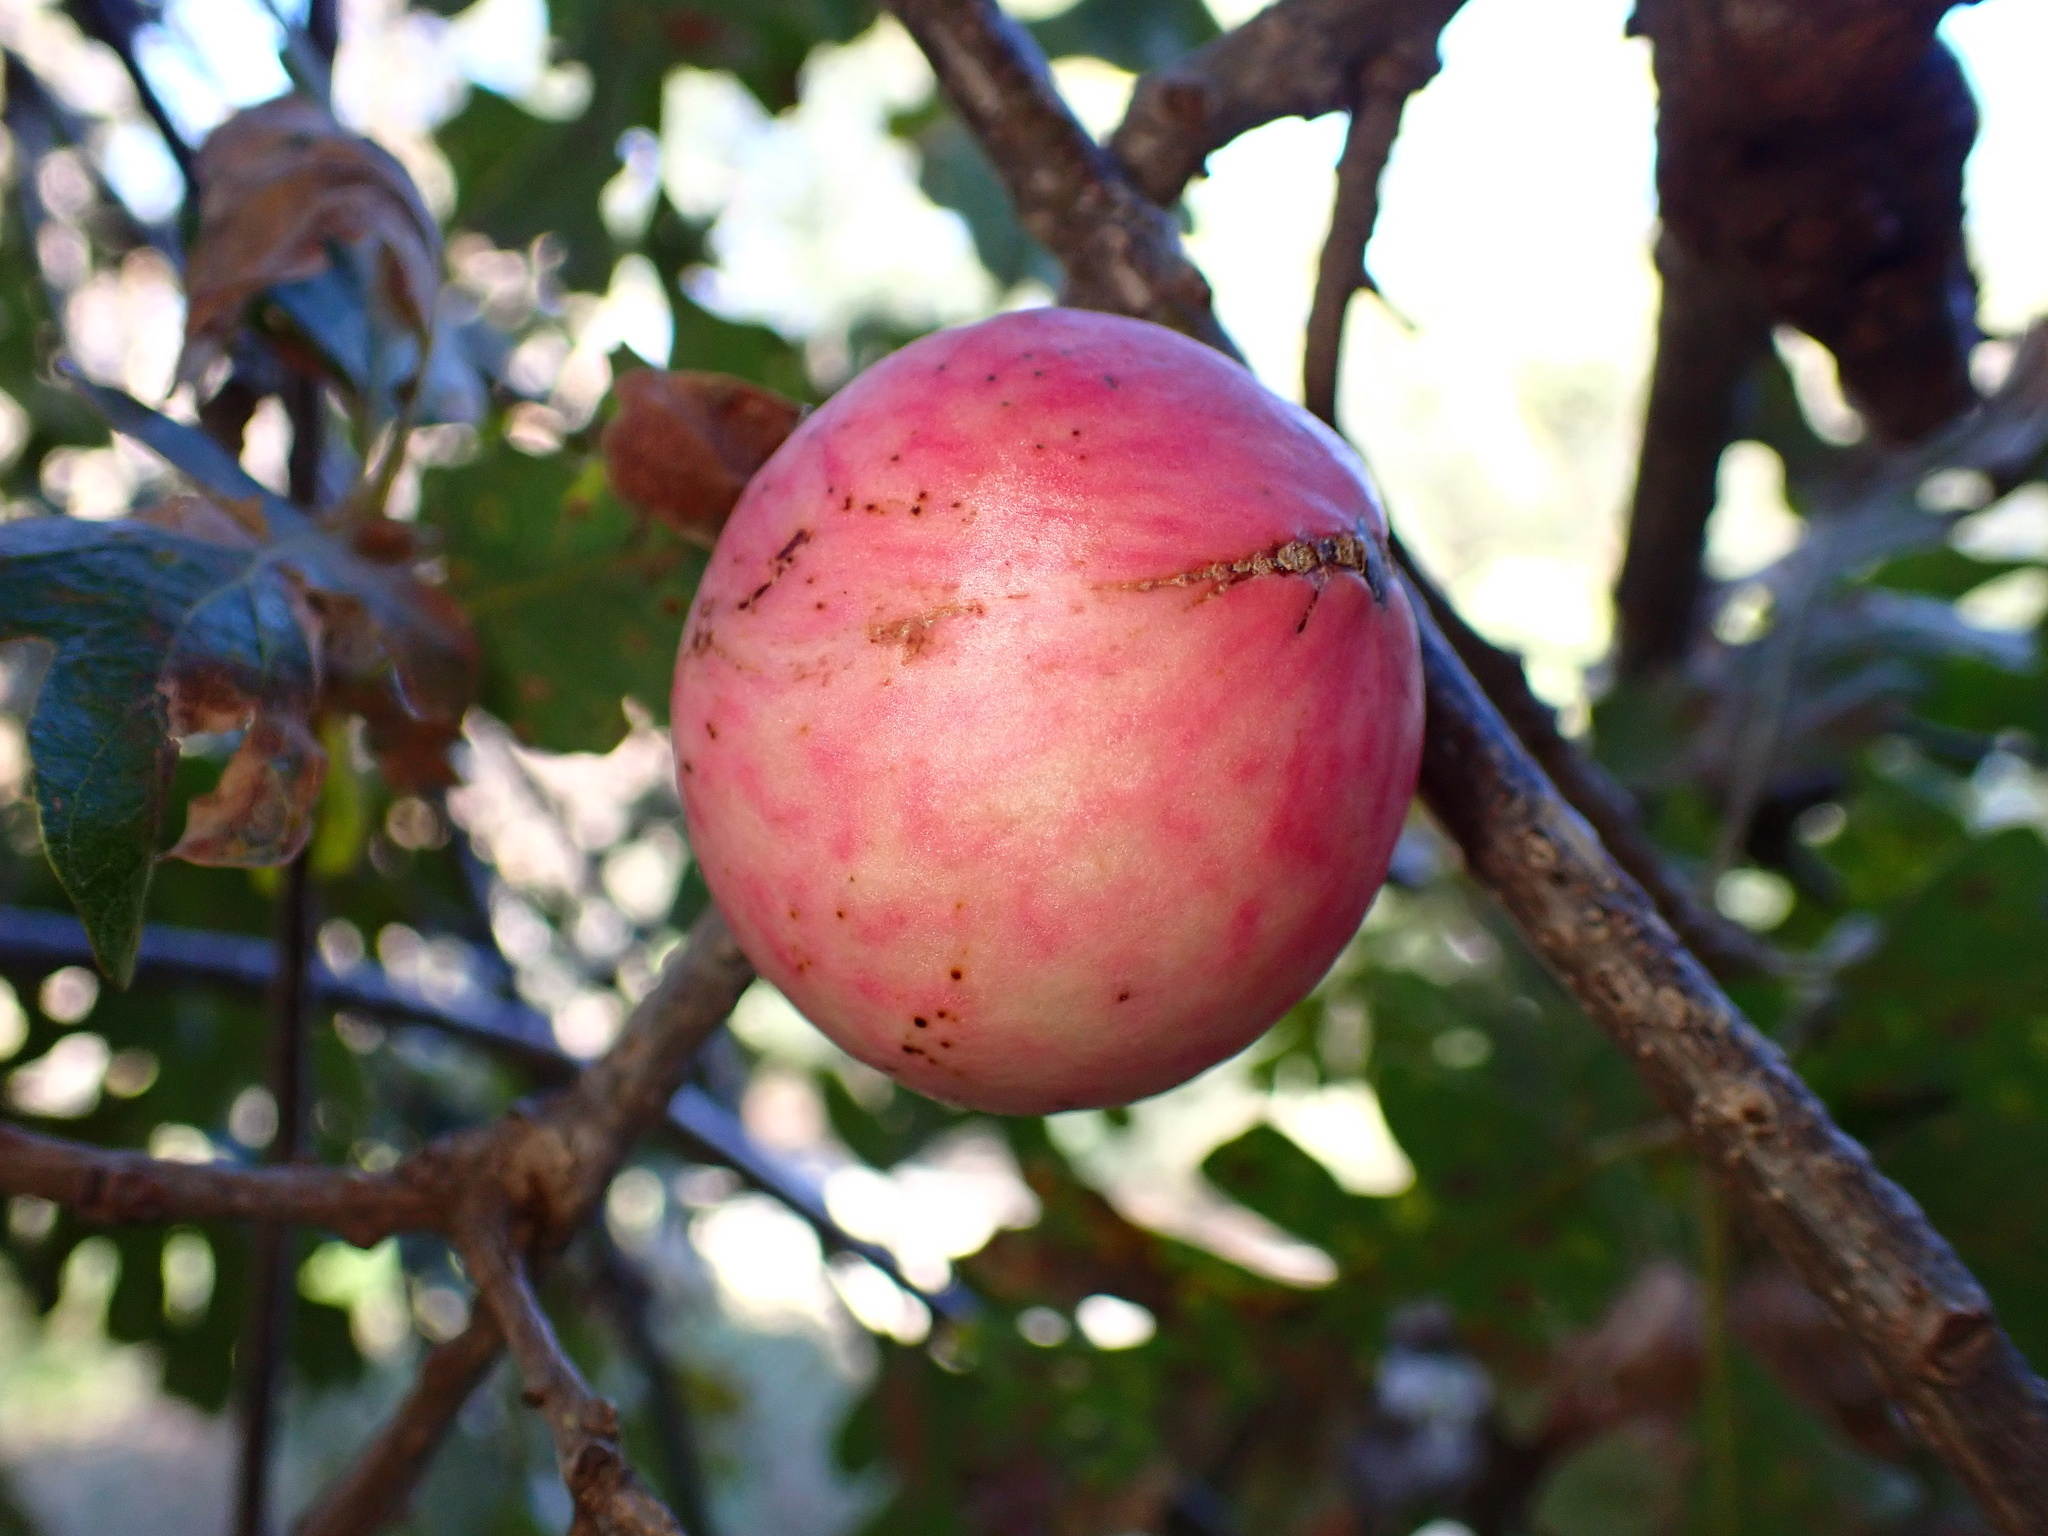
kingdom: Animalia
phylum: Arthropoda
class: Insecta
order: Hymenoptera
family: Cynipidae
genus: Andricus
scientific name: Andricus quercuscalifornicus
